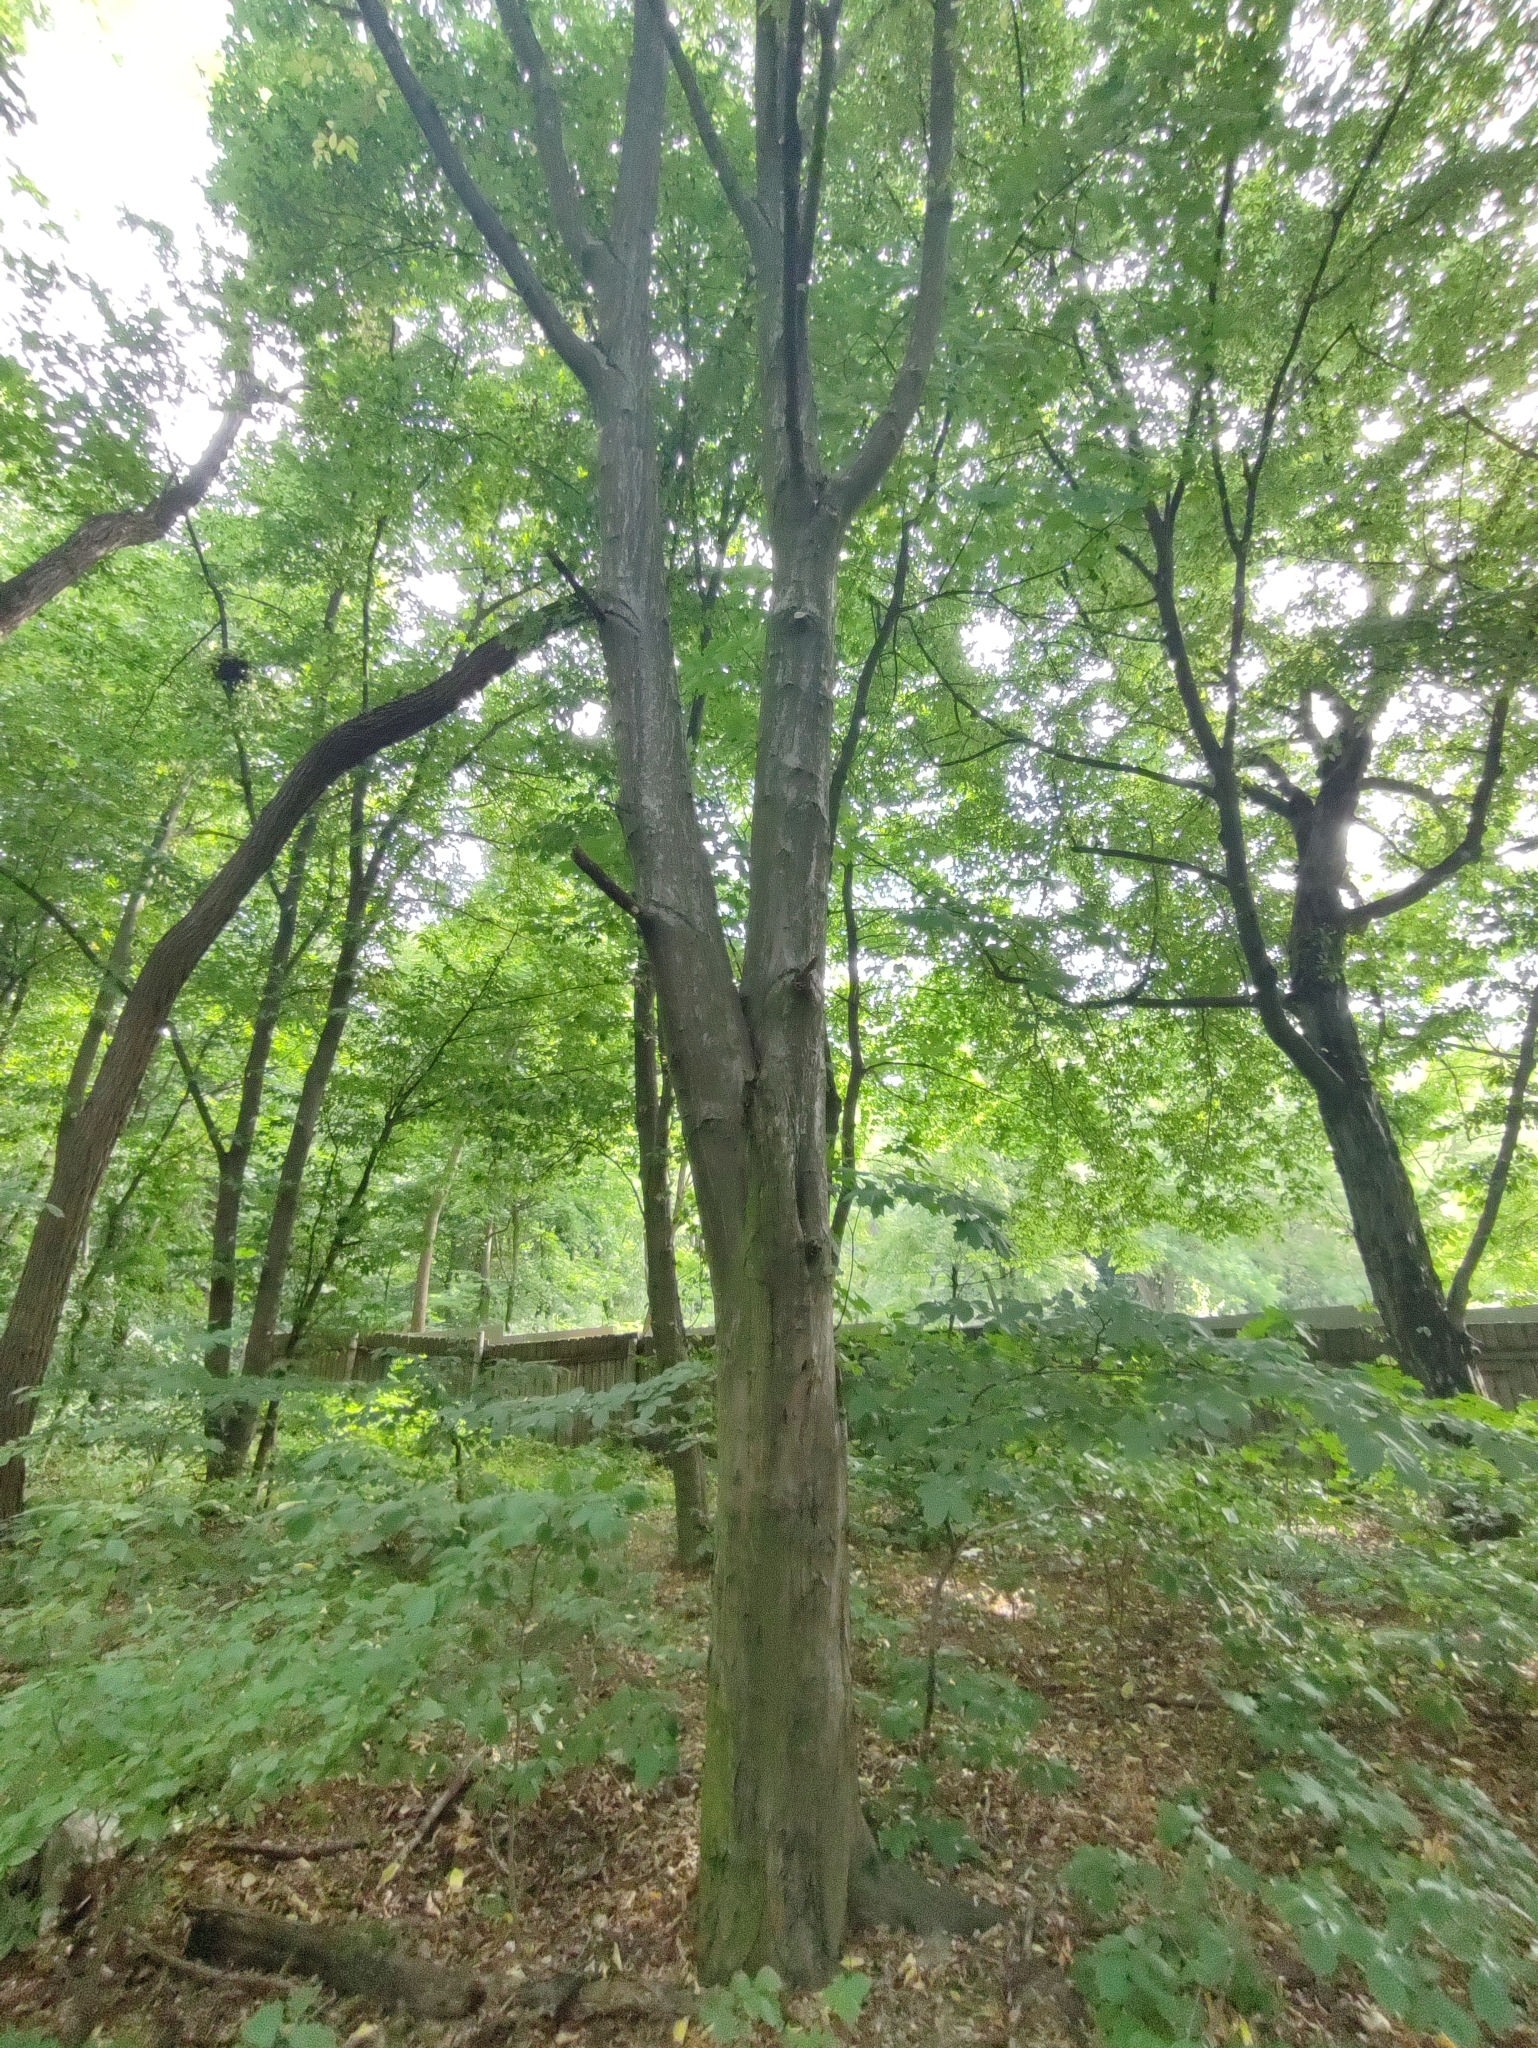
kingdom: Plantae
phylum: Tracheophyta
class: Magnoliopsida
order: Fagales
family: Betulaceae
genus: Carpinus
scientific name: Carpinus betulus
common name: Hornbeam
